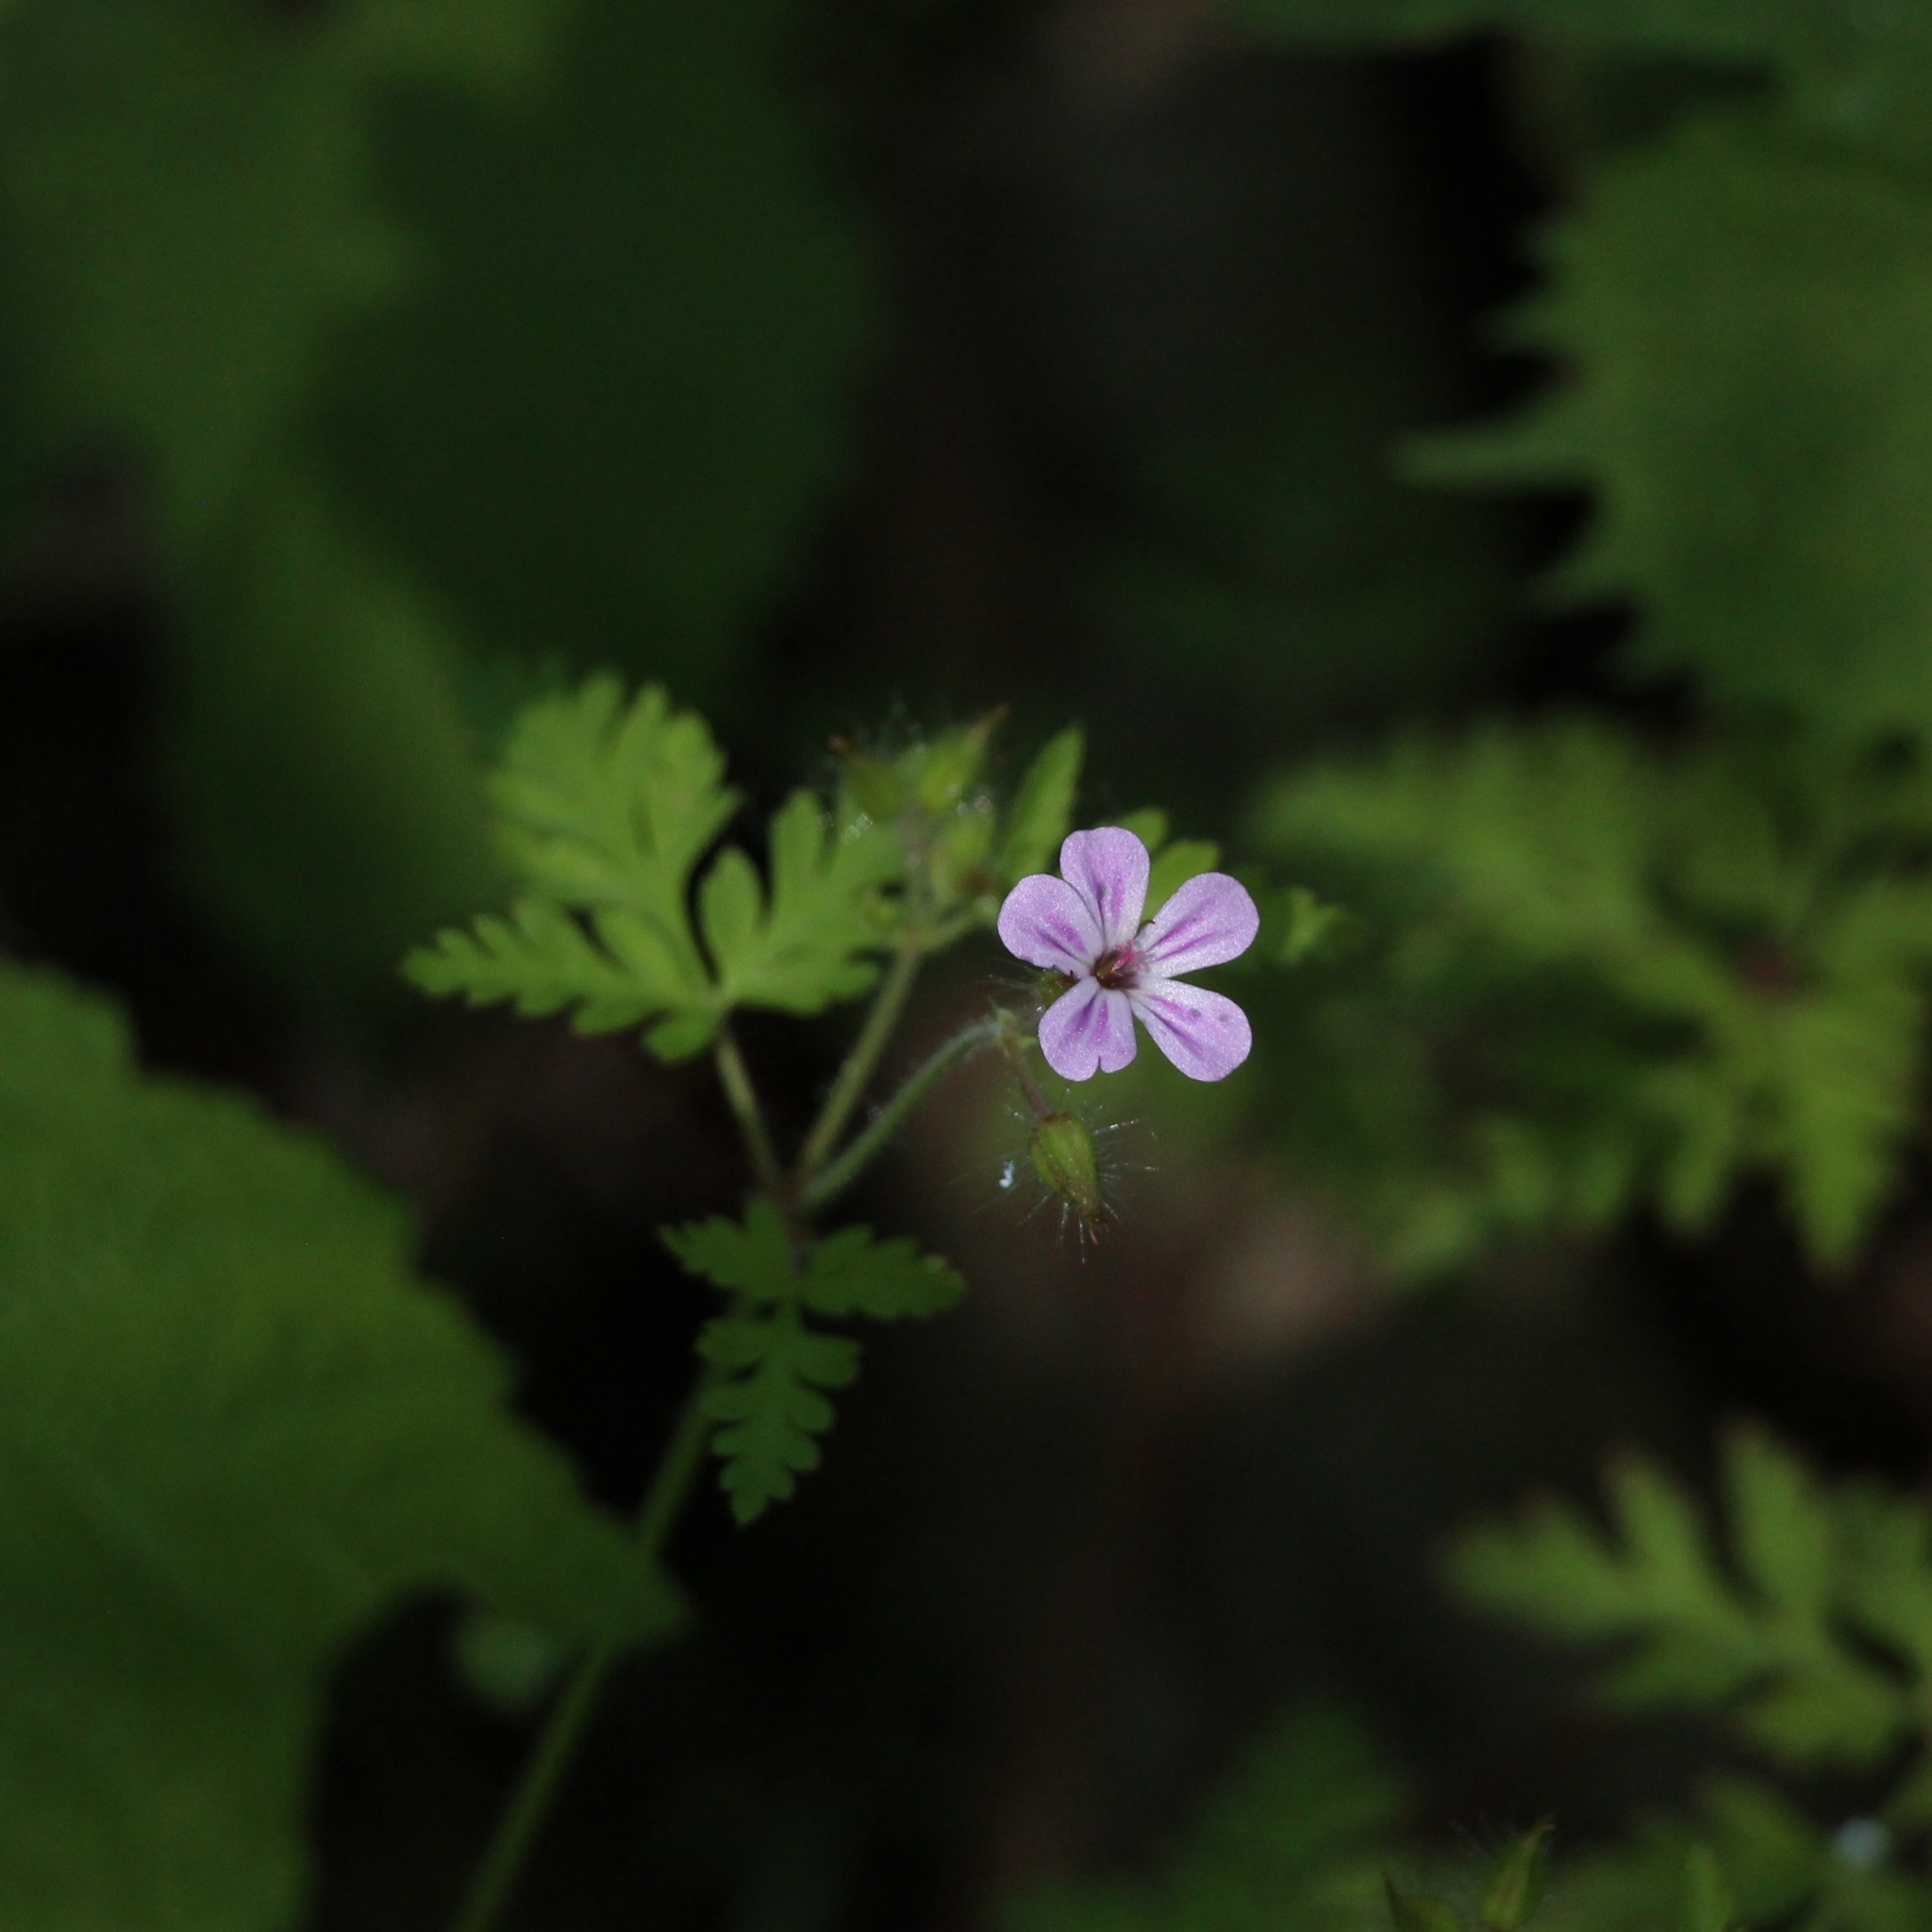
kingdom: Plantae
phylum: Tracheophyta
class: Magnoliopsida
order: Geraniales
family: Geraniaceae
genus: Geranium
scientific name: Geranium robertianum
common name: Herb-robert
